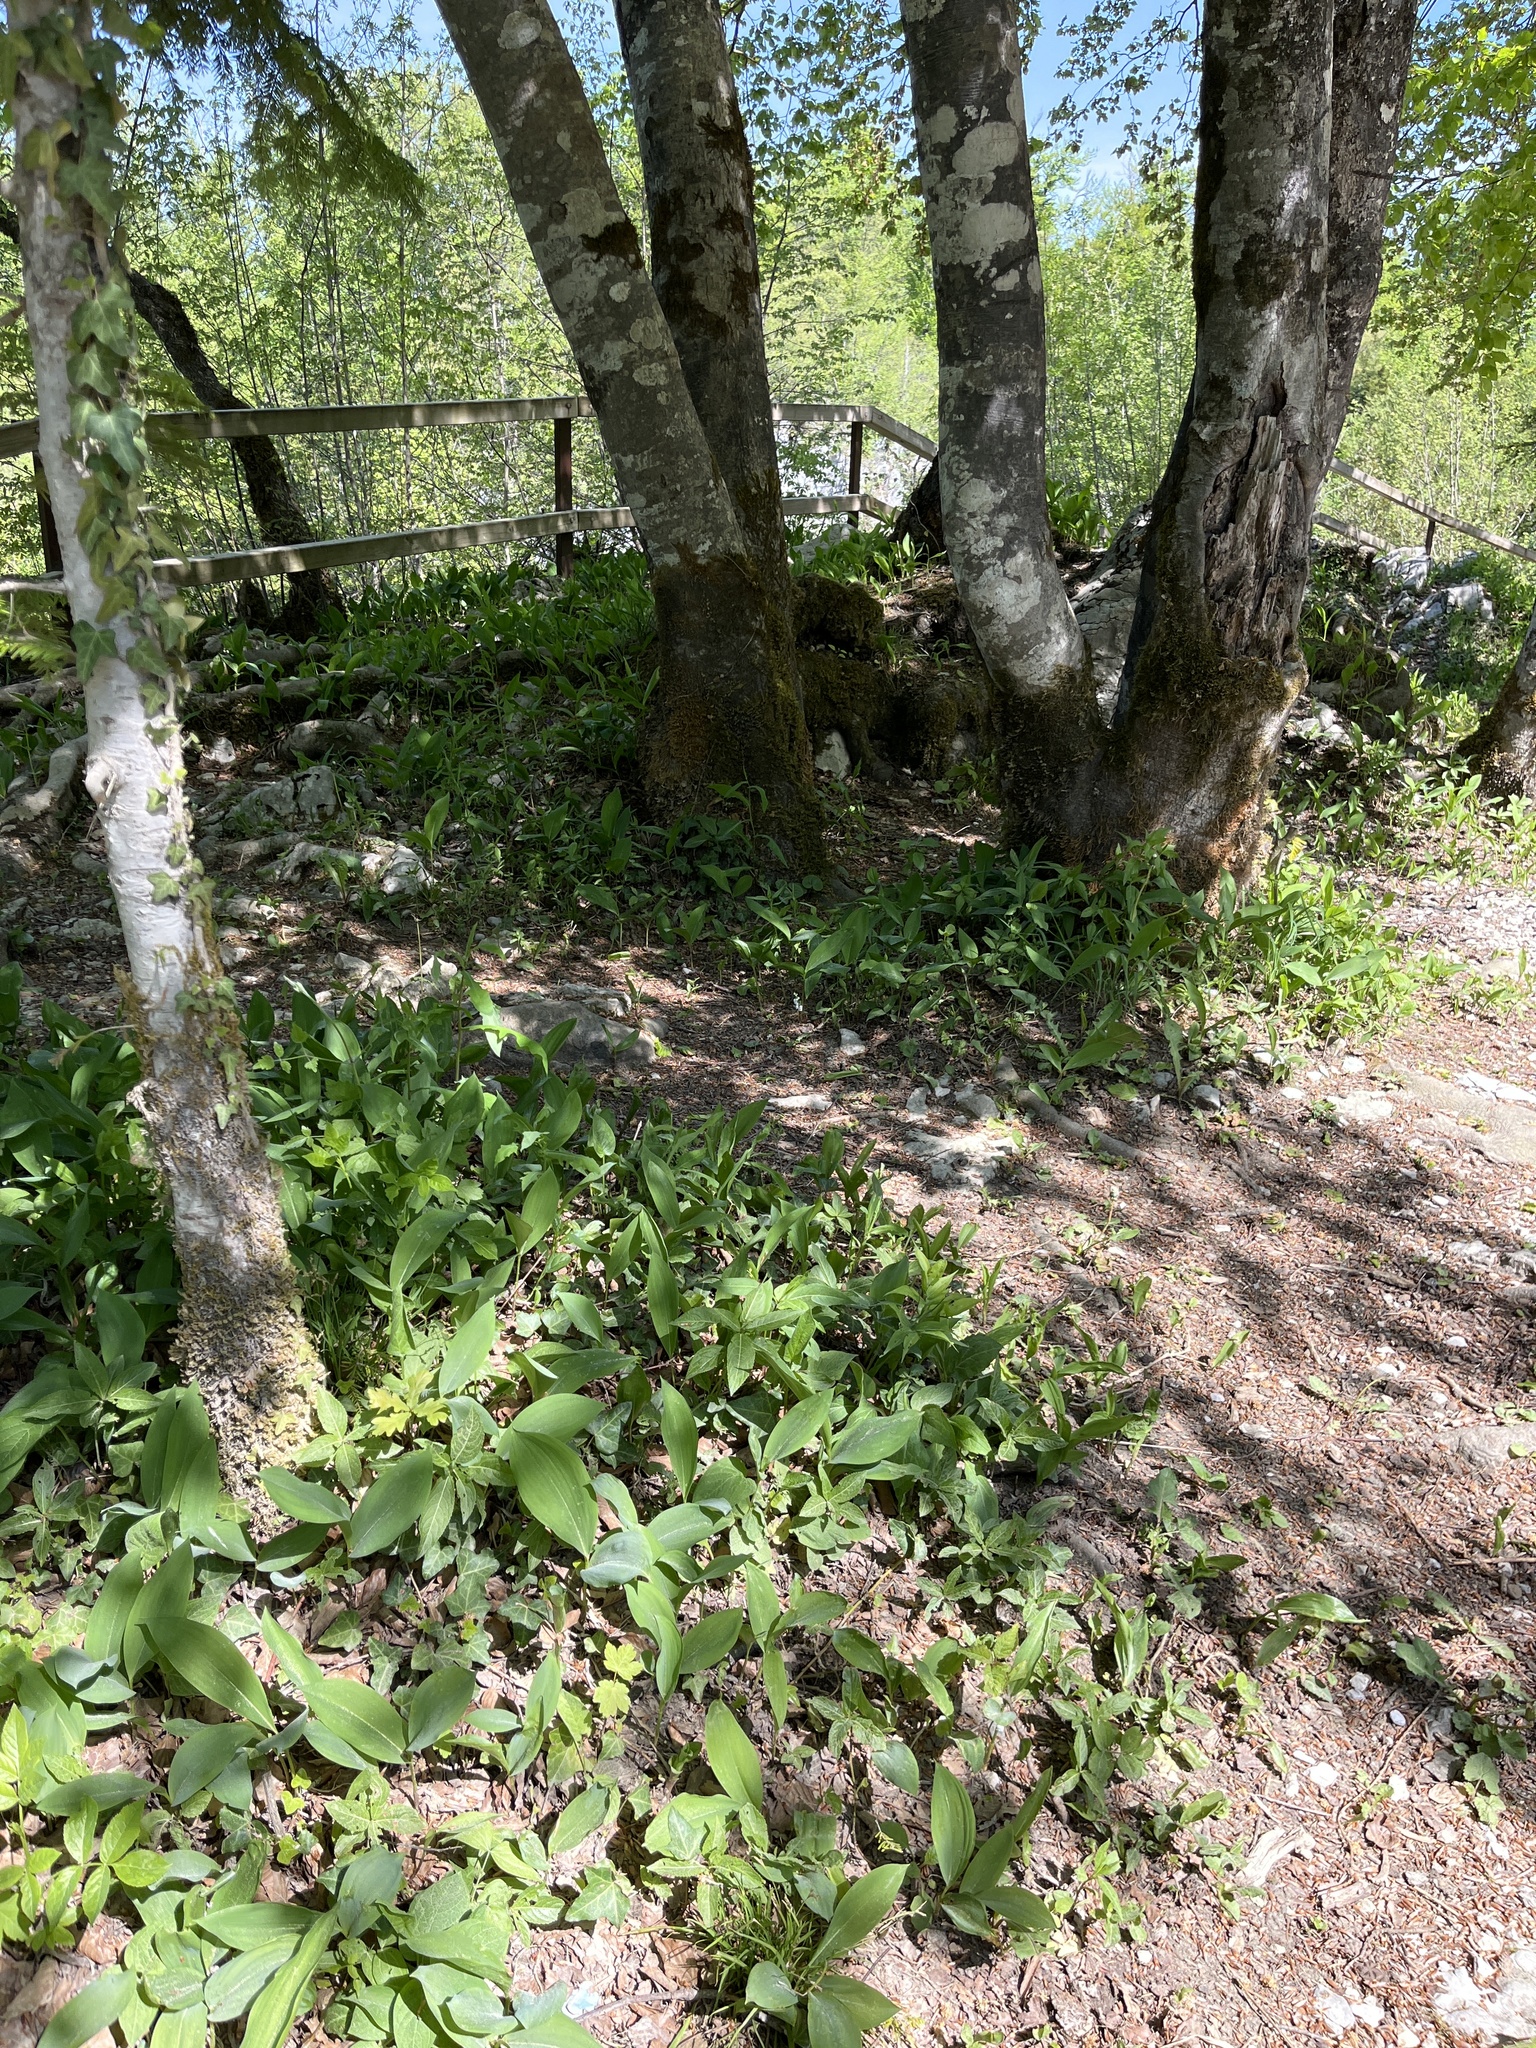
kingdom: Plantae
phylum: Tracheophyta
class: Liliopsida
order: Asparagales
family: Asparagaceae
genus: Convallaria
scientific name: Convallaria majalis
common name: Lily-of-the-valley
